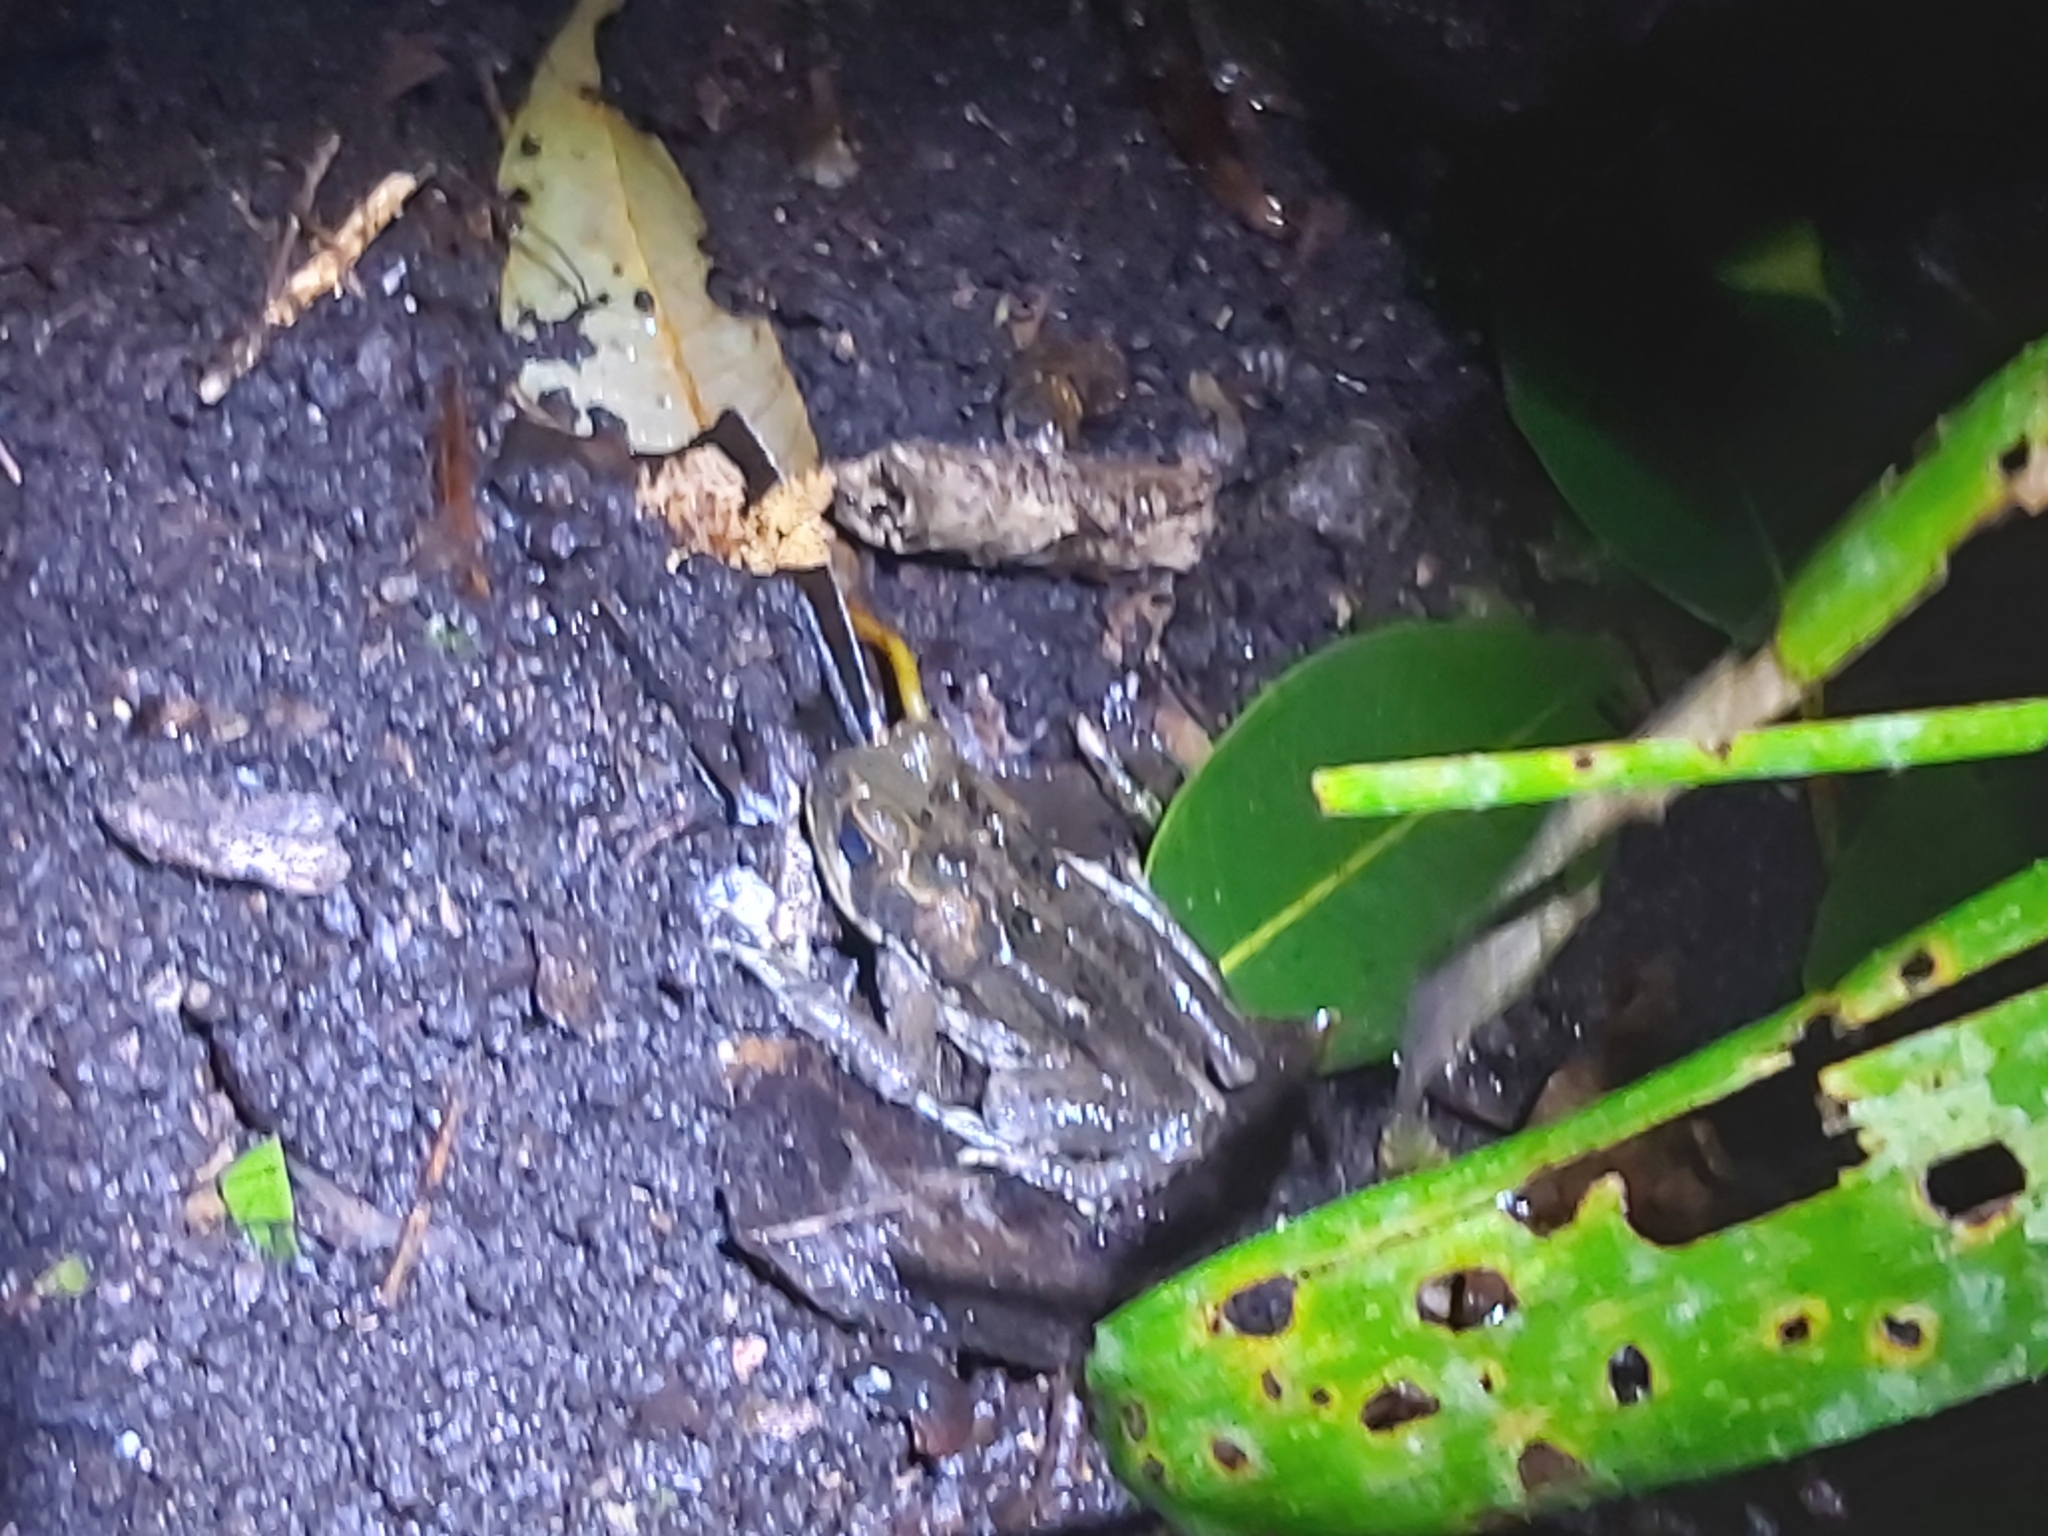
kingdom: Animalia
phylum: Chordata
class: Amphibia
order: Anura
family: Bufonidae
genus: Rhinella
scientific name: Rhinella marina
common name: Cane toad
